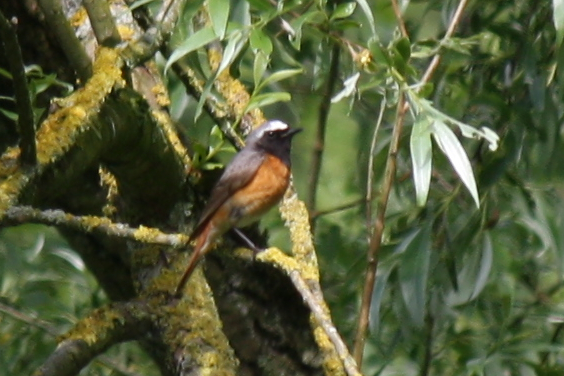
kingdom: Animalia
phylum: Chordata
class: Aves
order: Passeriformes
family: Muscicapidae
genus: Phoenicurus
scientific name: Phoenicurus phoenicurus
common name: Common redstart
